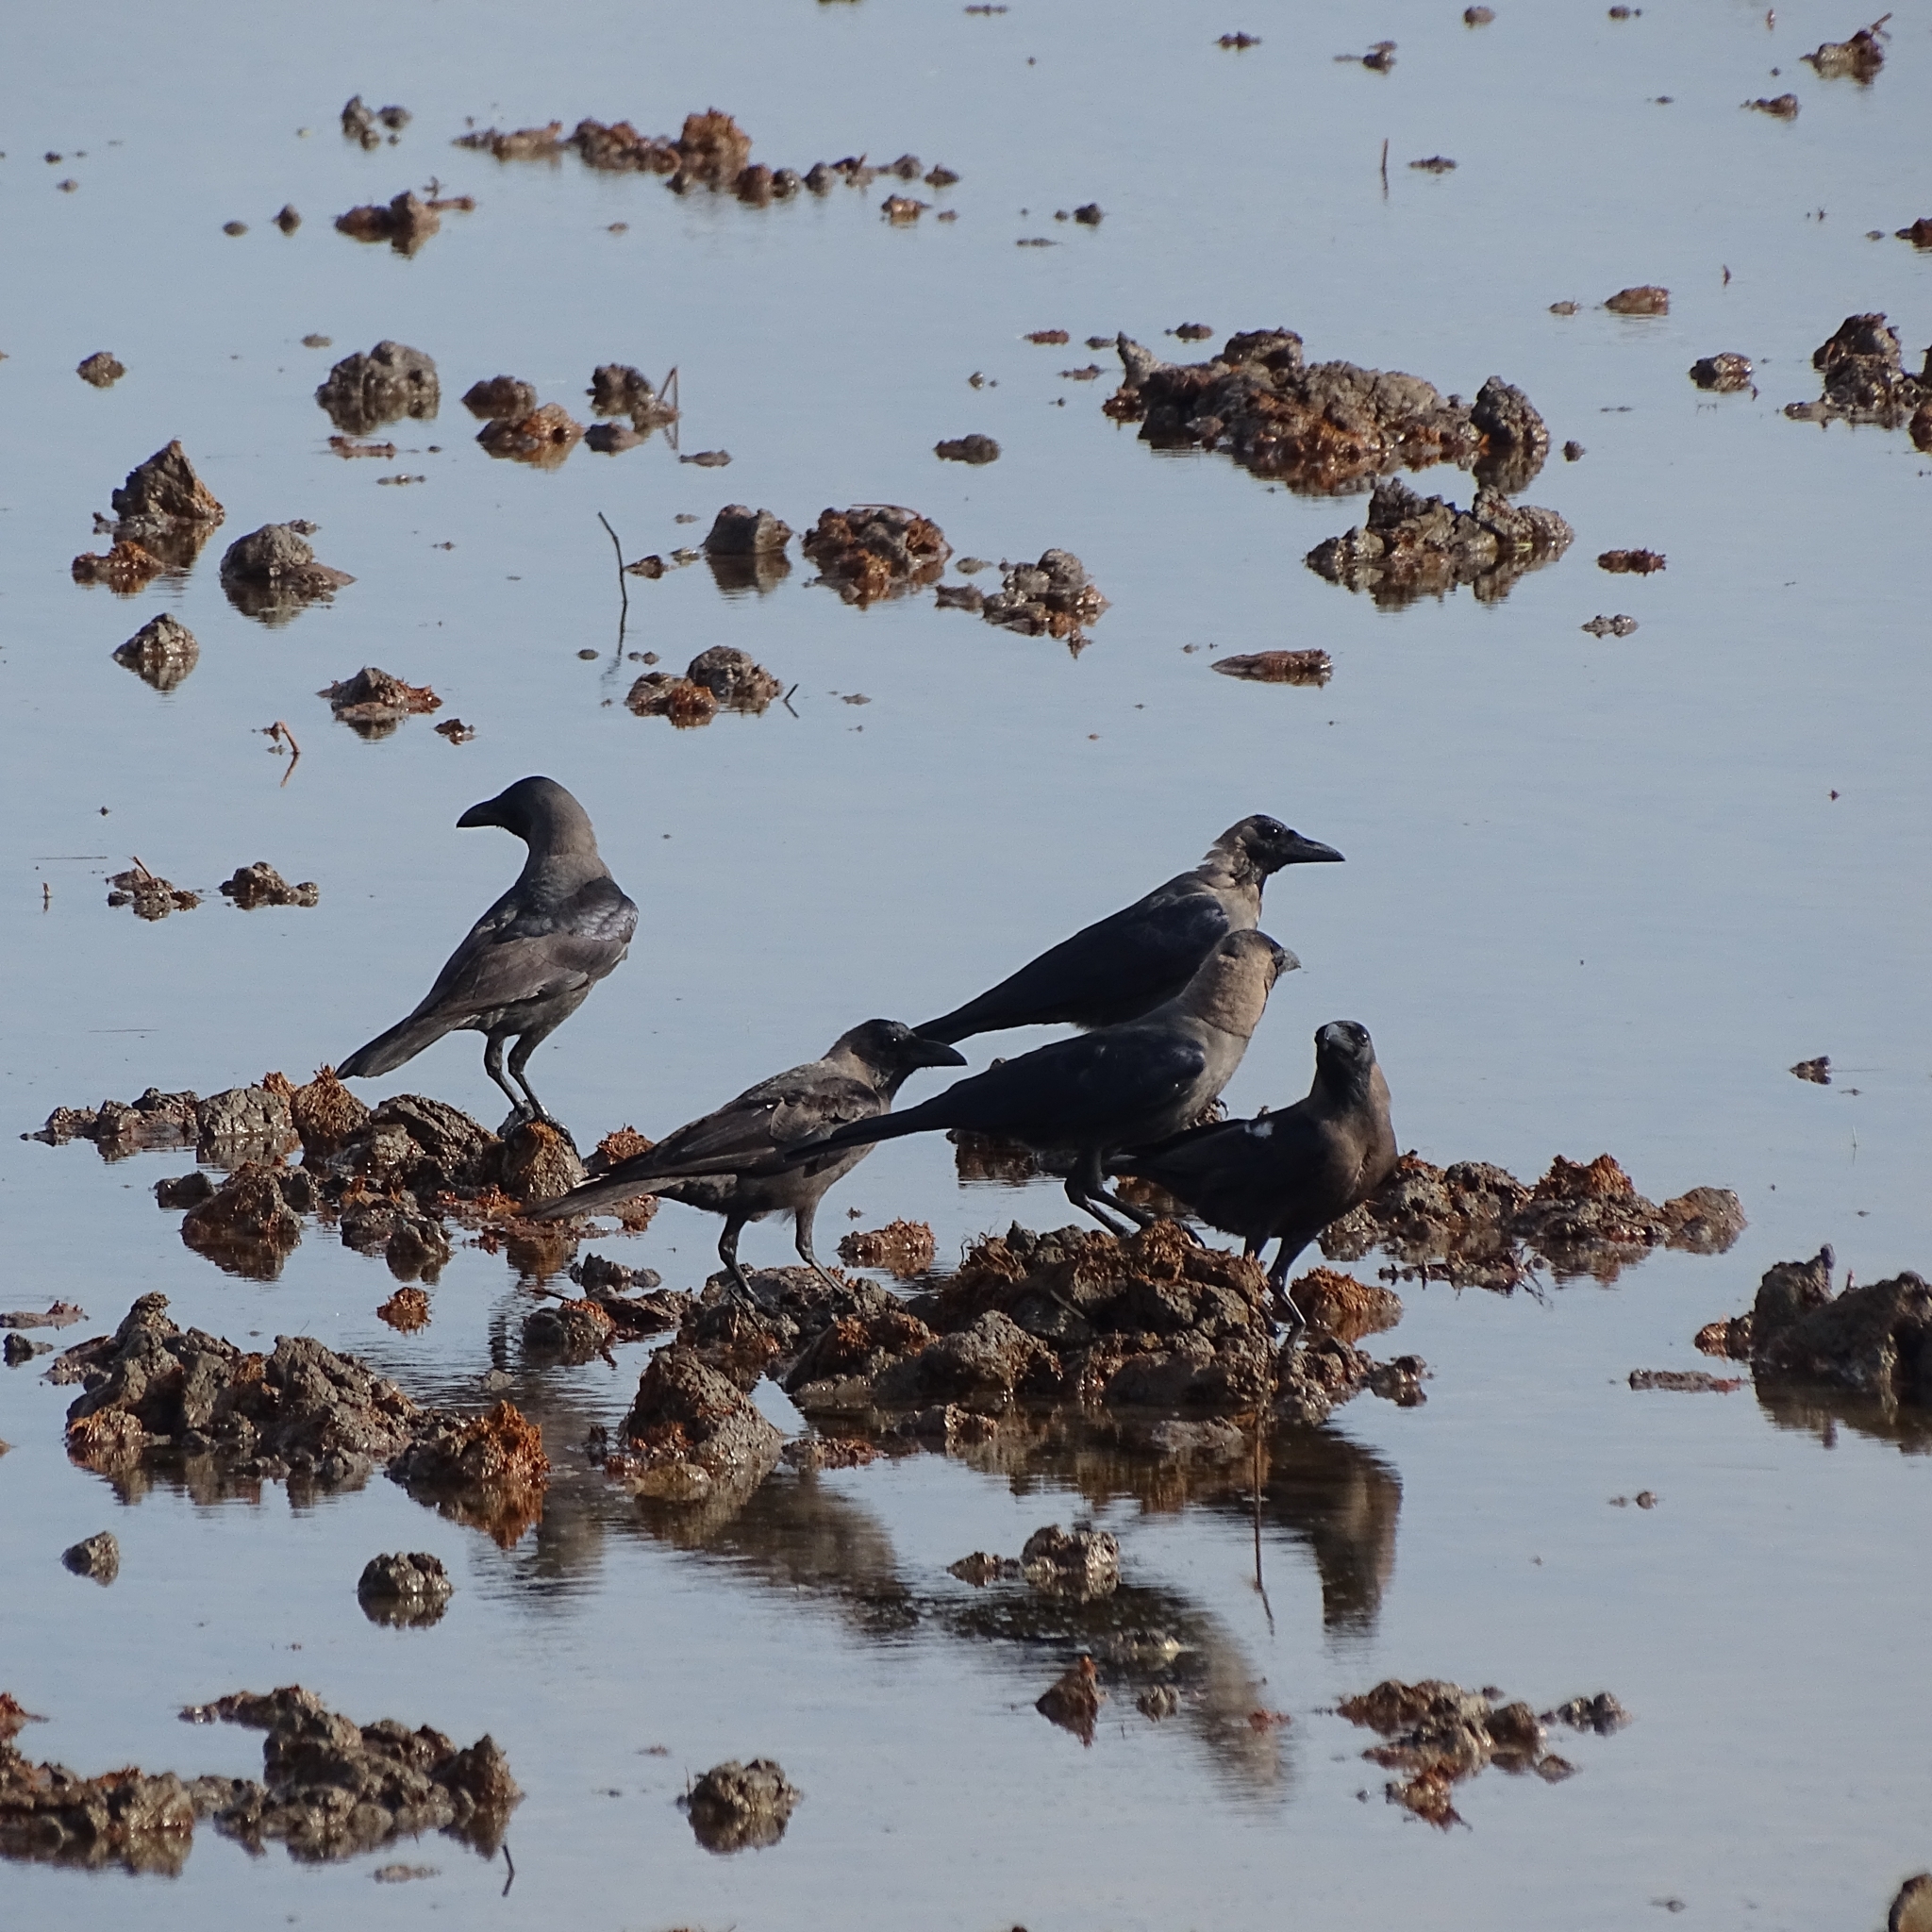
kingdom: Animalia
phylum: Chordata
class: Aves
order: Passeriformes
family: Corvidae
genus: Corvus
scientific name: Corvus splendens
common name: House crow
